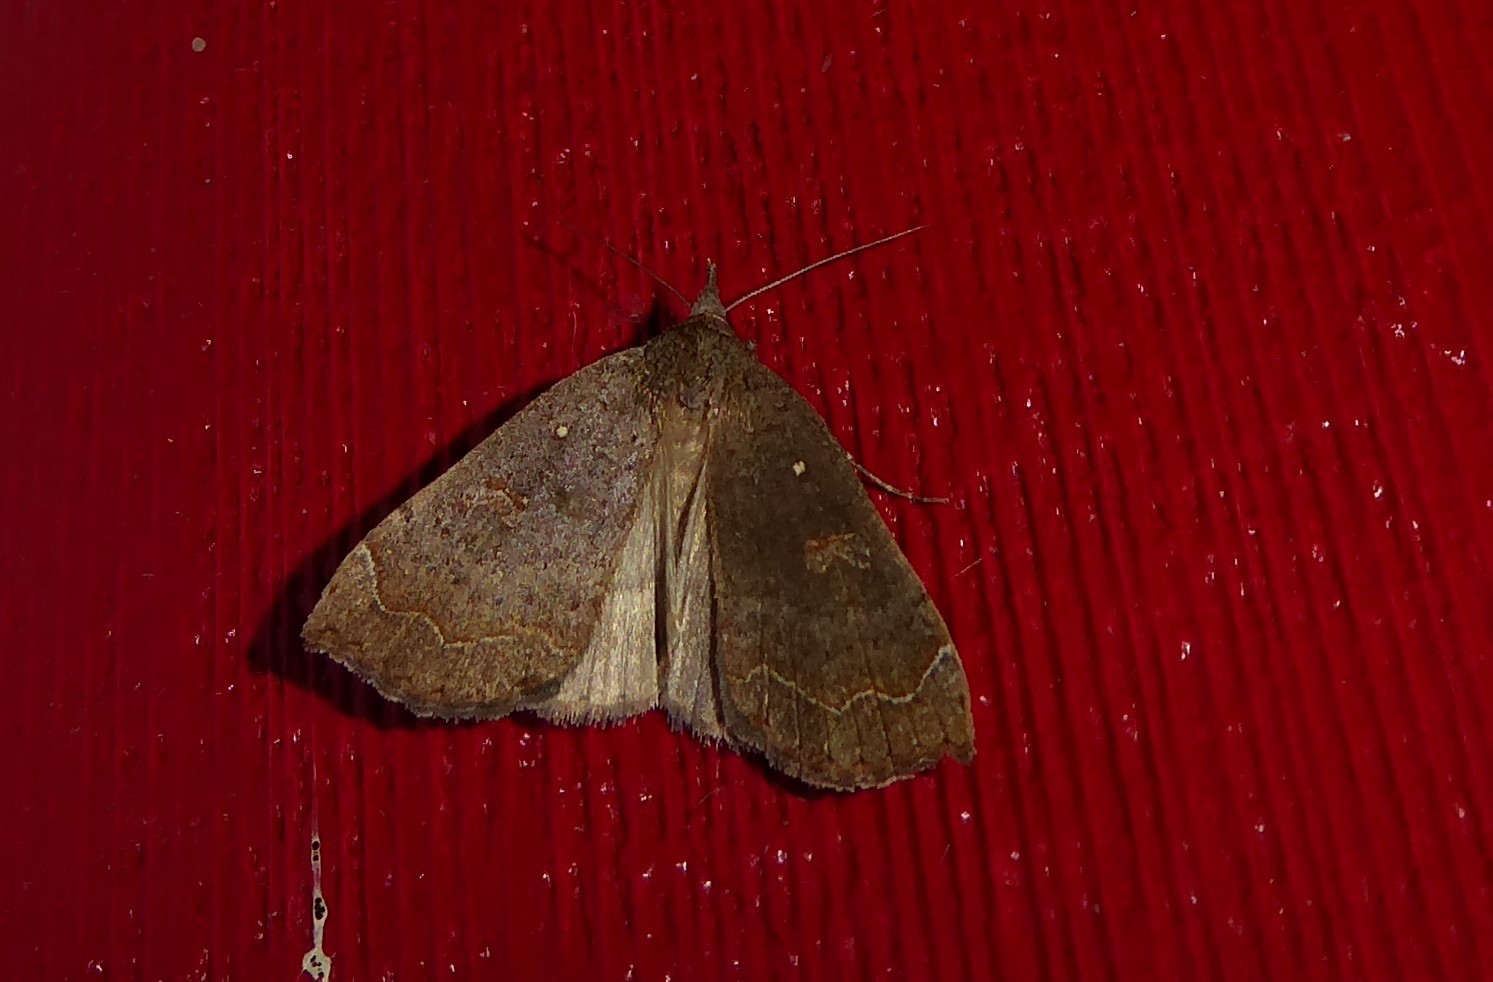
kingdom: Animalia
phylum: Arthropoda
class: Insecta
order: Lepidoptera
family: Erebidae
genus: Rhapsa
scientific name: Rhapsa scotosialis
